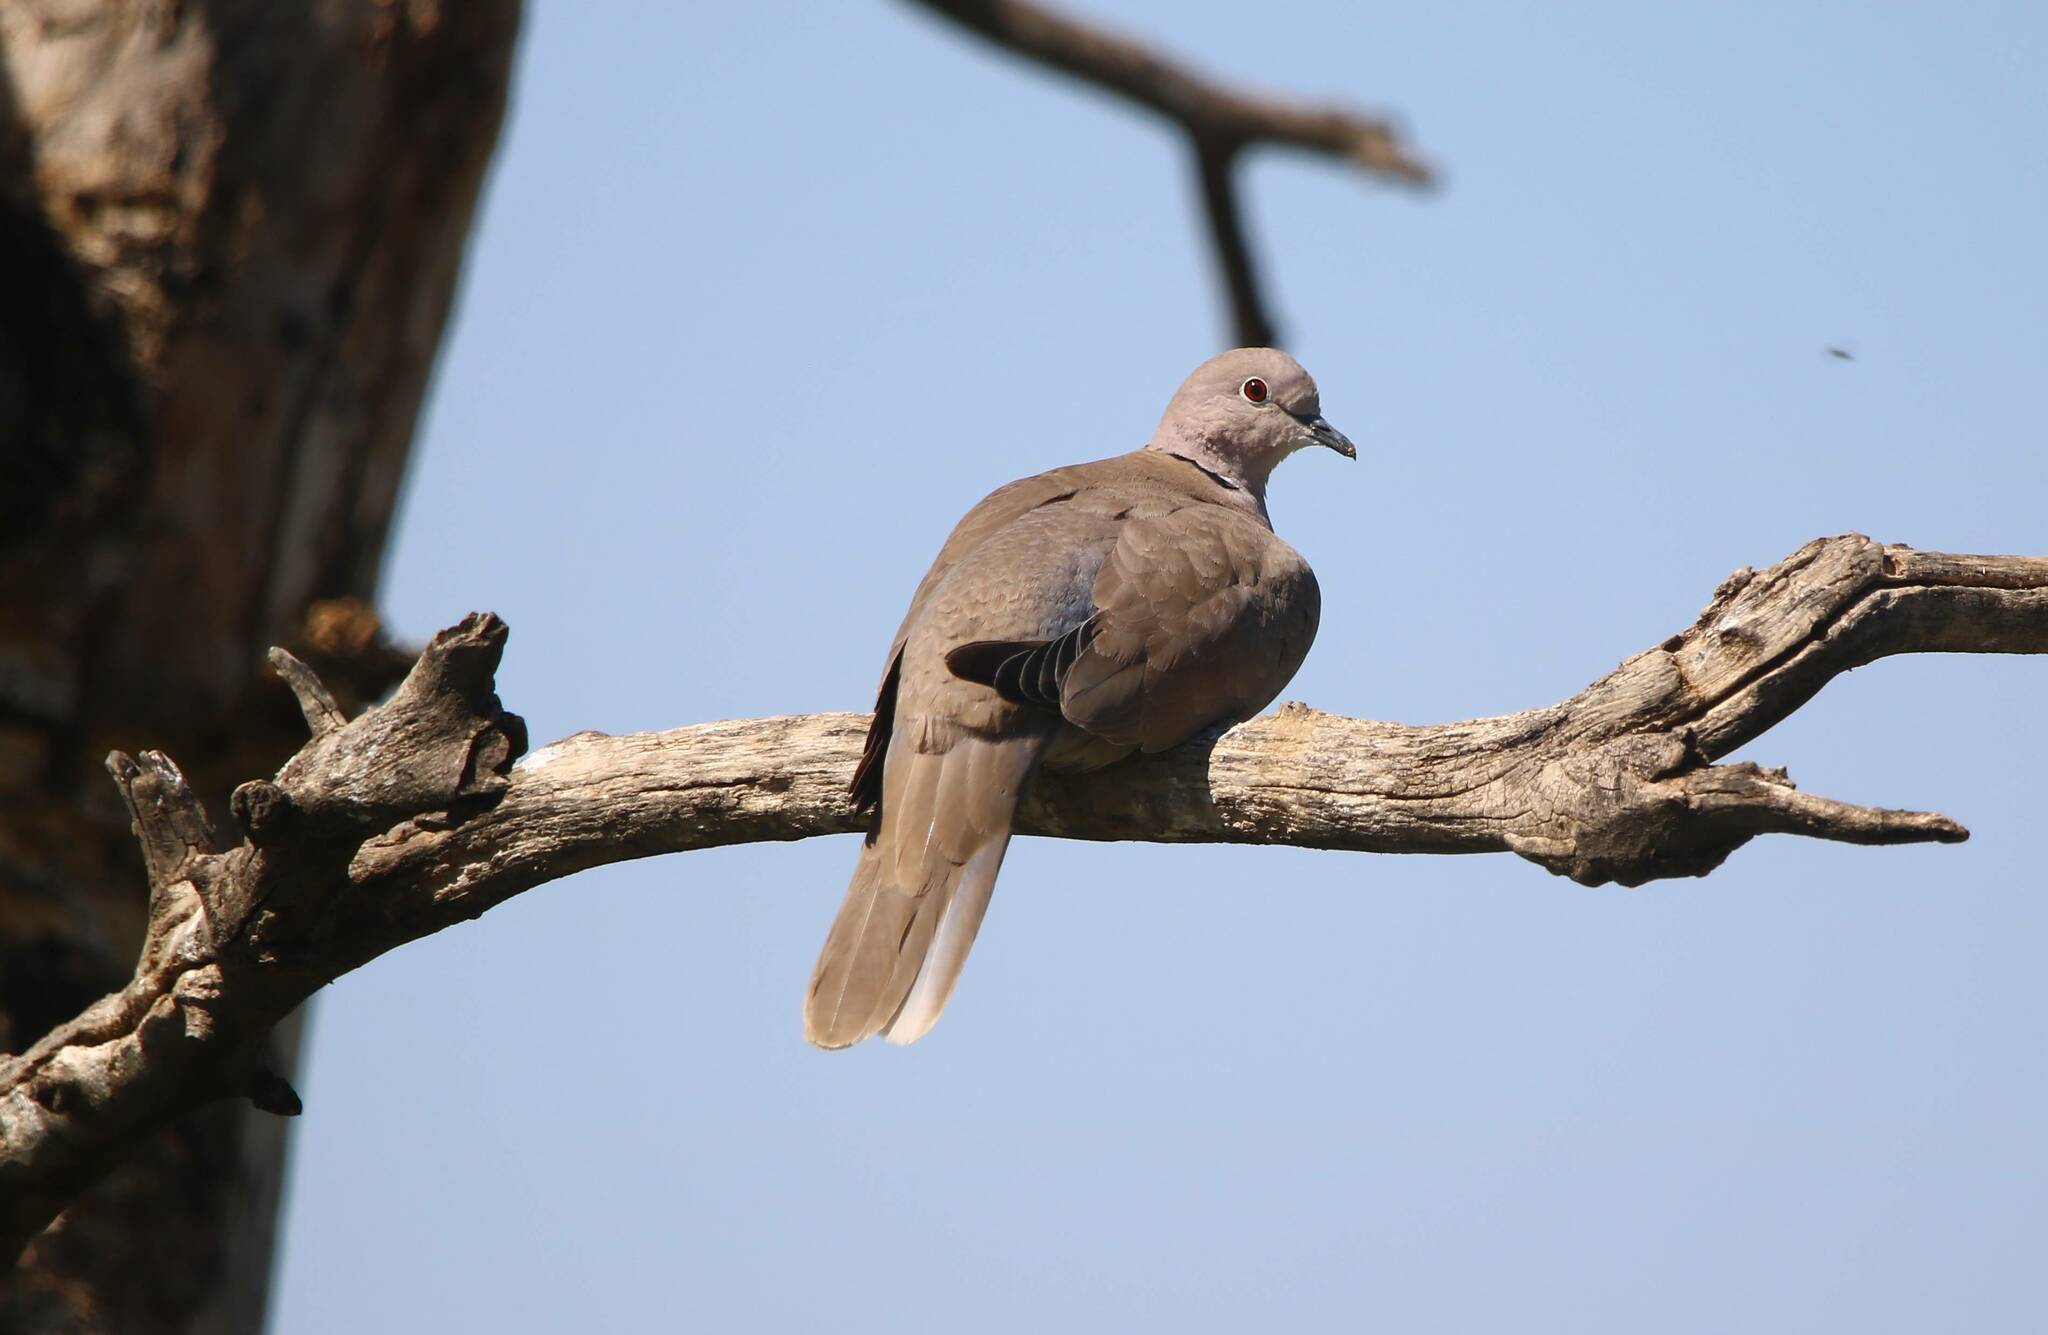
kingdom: Animalia
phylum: Chordata
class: Aves
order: Columbiformes
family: Columbidae
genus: Streptopelia
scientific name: Streptopelia decaocto
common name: Eurasian collared dove
